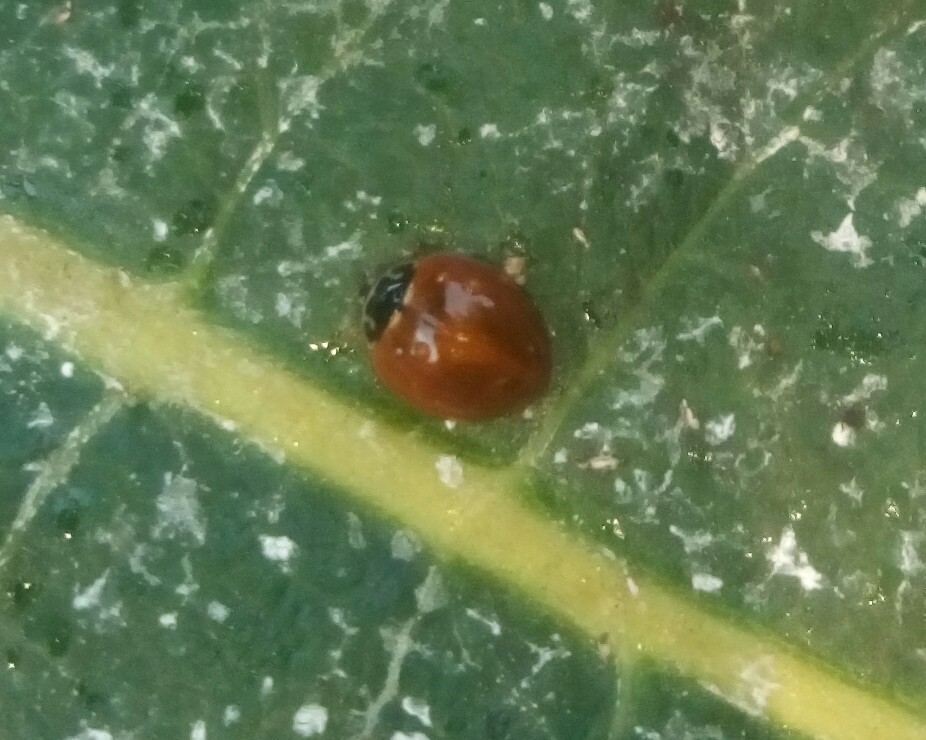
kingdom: Animalia
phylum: Arthropoda
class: Insecta
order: Coleoptera
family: Coccinellidae
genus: Cycloneda
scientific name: Cycloneda munda
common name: Polished lady beetle
